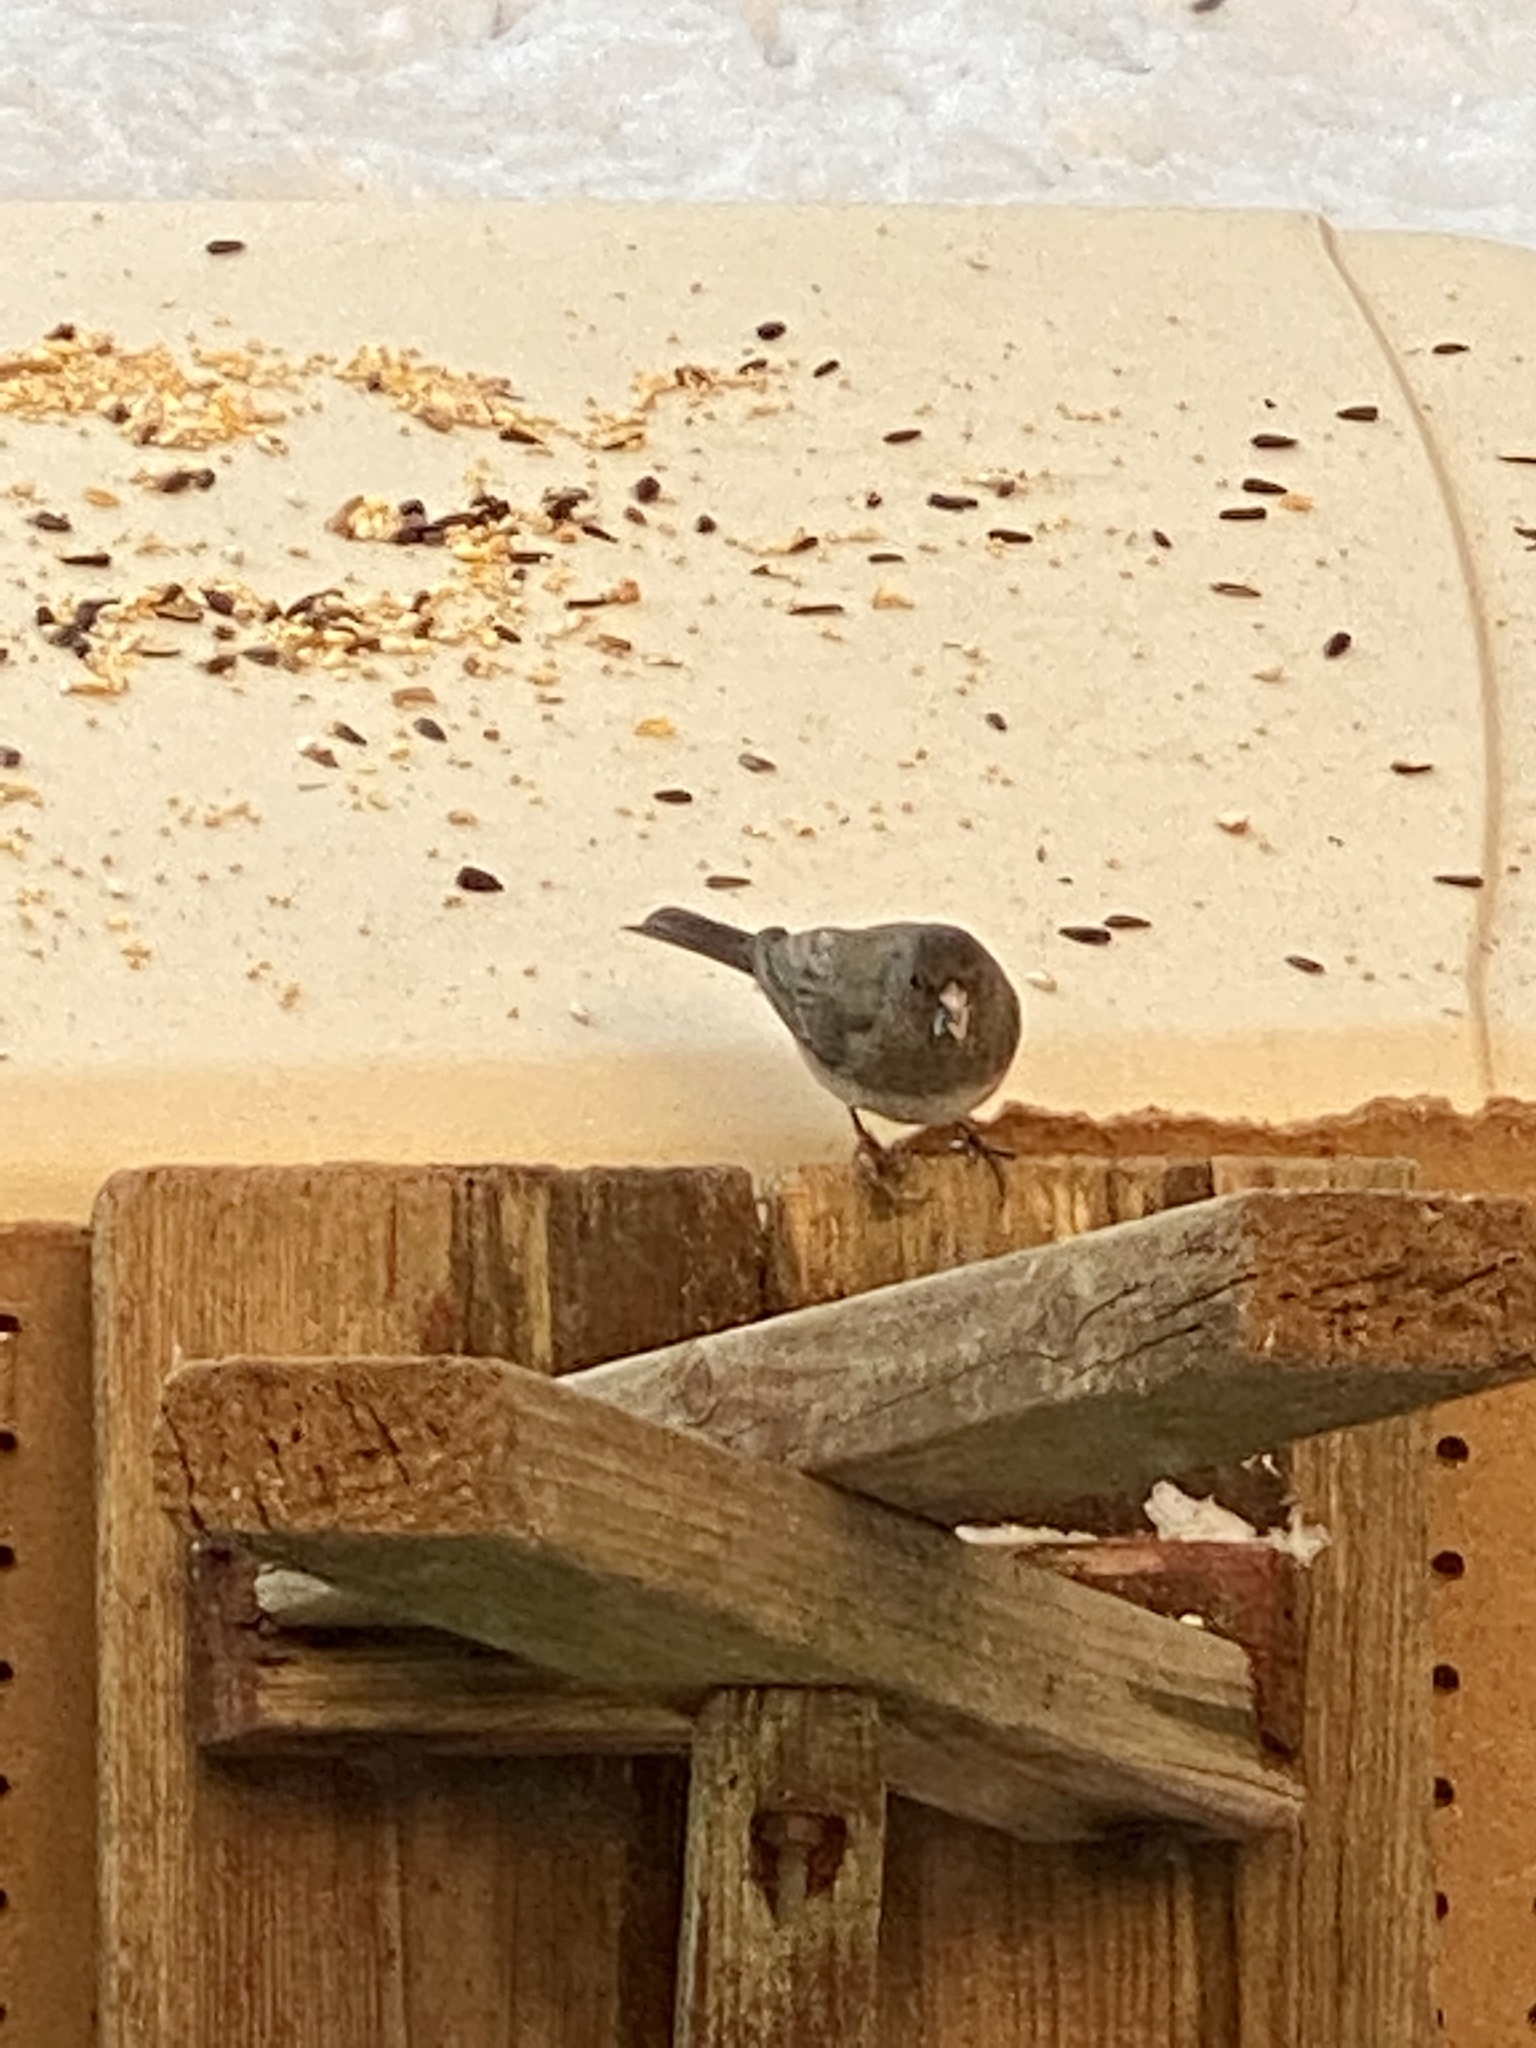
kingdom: Animalia
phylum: Chordata
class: Aves
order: Passeriformes
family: Passerellidae
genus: Junco
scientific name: Junco hyemalis
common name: Dark-eyed junco
